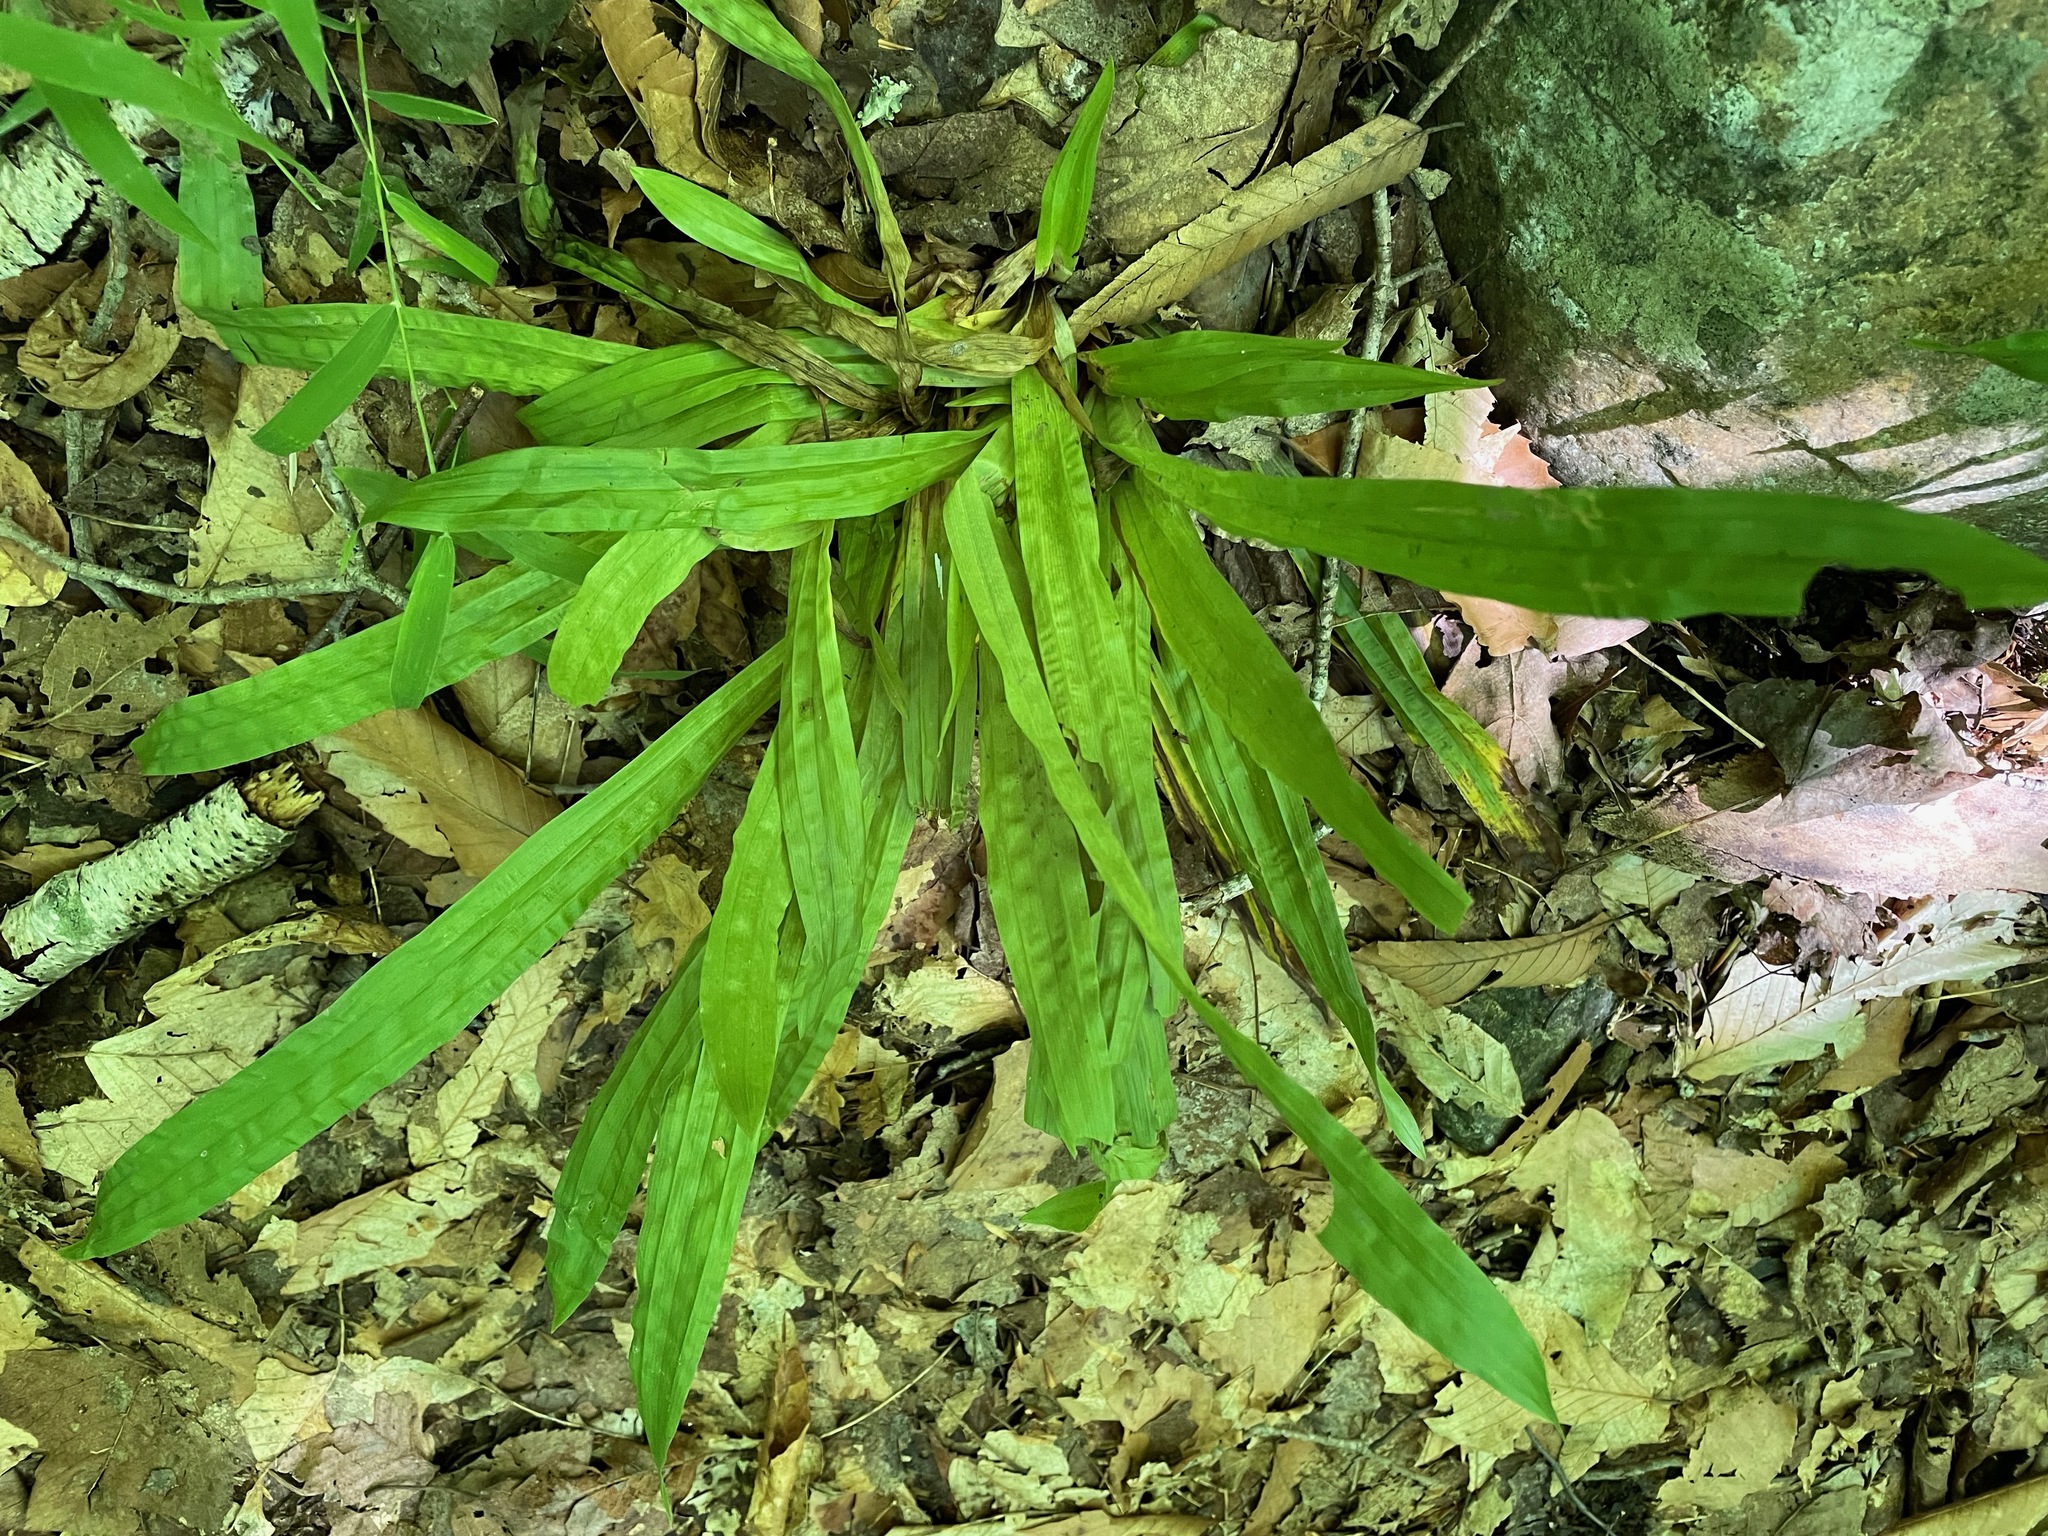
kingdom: Plantae
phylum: Tracheophyta
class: Liliopsida
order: Poales
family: Cyperaceae
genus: Carex
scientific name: Carex plantaginea
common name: Plantain-leaved sedge
